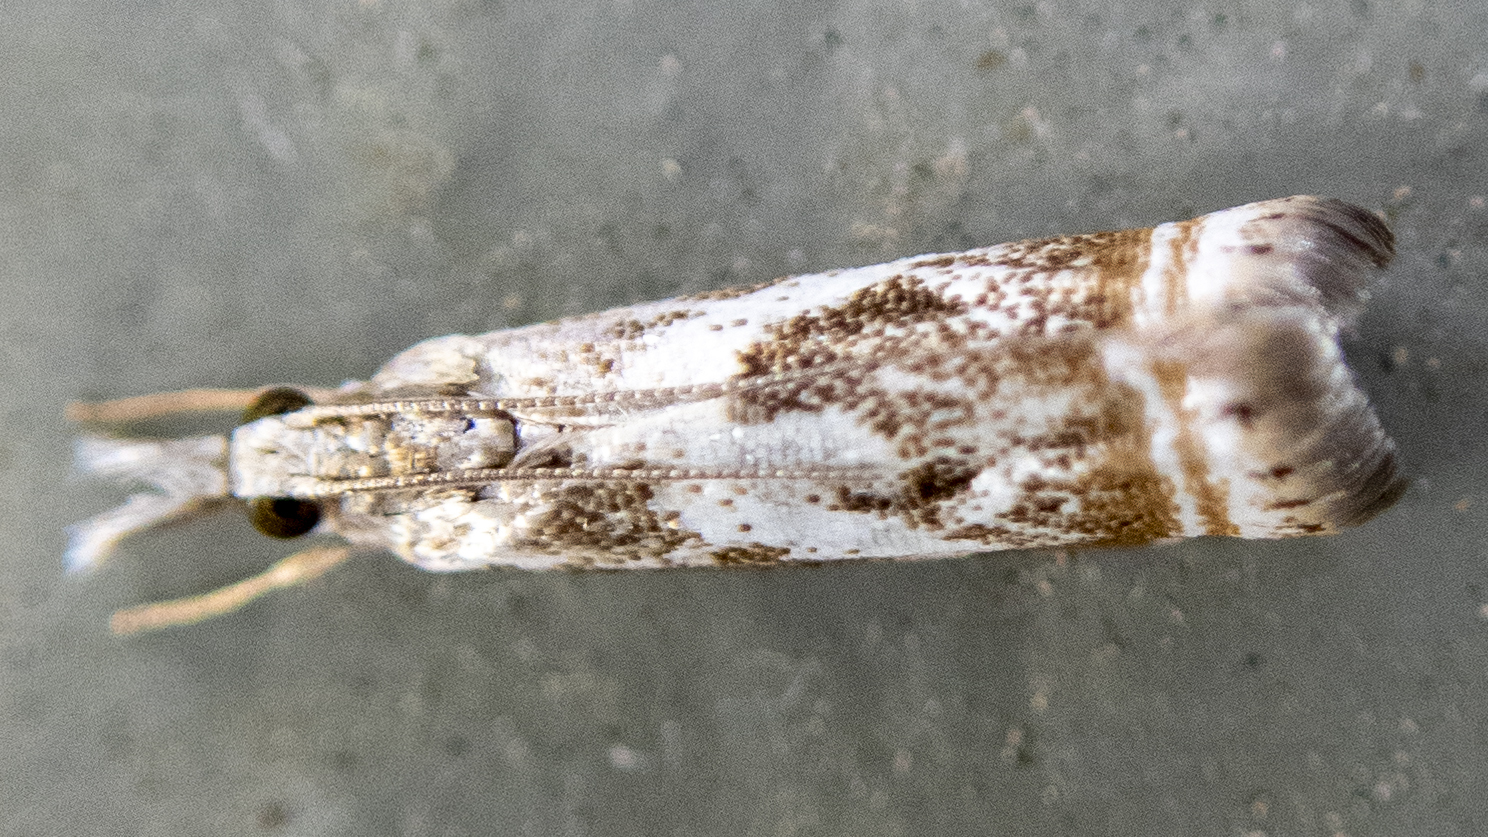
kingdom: Animalia
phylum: Arthropoda
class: Insecta
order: Lepidoptera
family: Crambidae
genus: Microcrambus
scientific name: Microcrambus elegans
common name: Elegant grass-veneer
